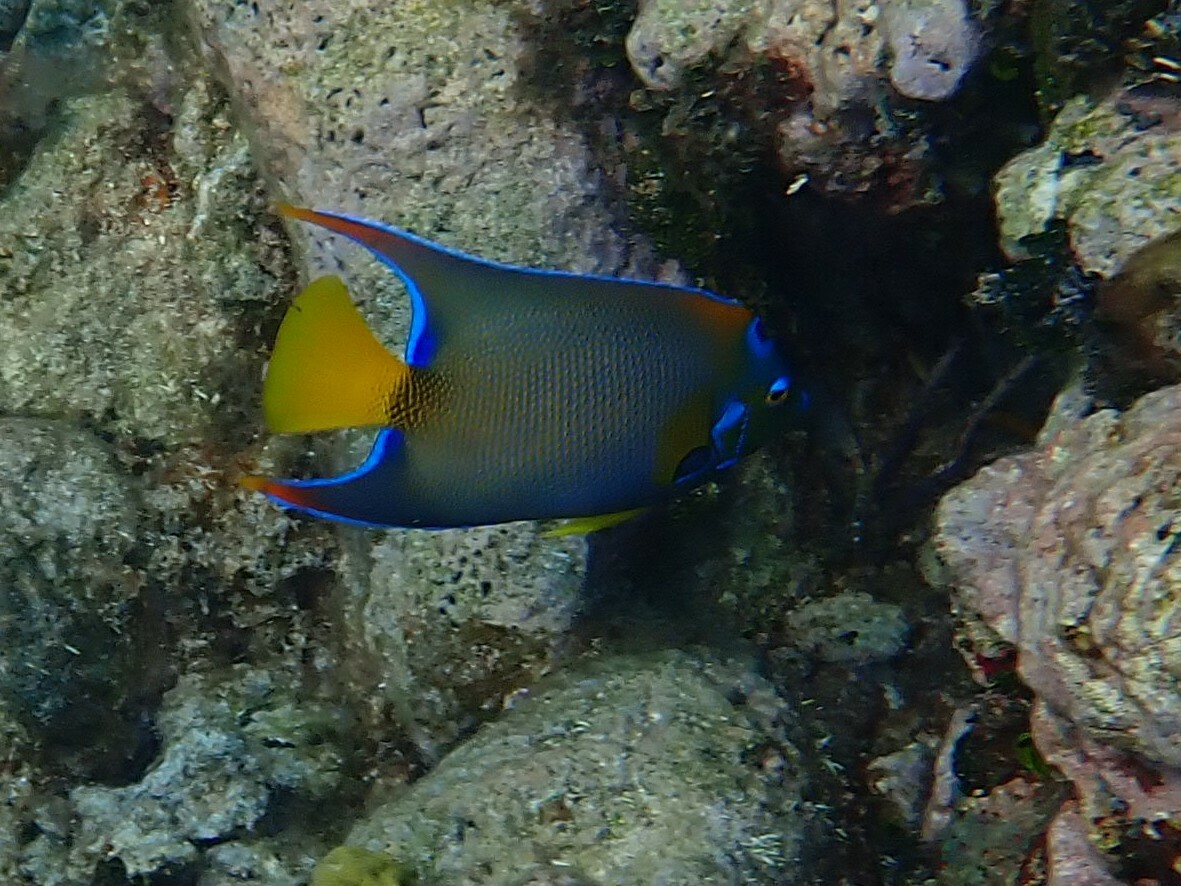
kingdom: Animalia
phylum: Chordata
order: Perciformes
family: Pomacanthidae
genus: Holacanthus
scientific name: Holacanthus ciliaris
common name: Queen angelfish
